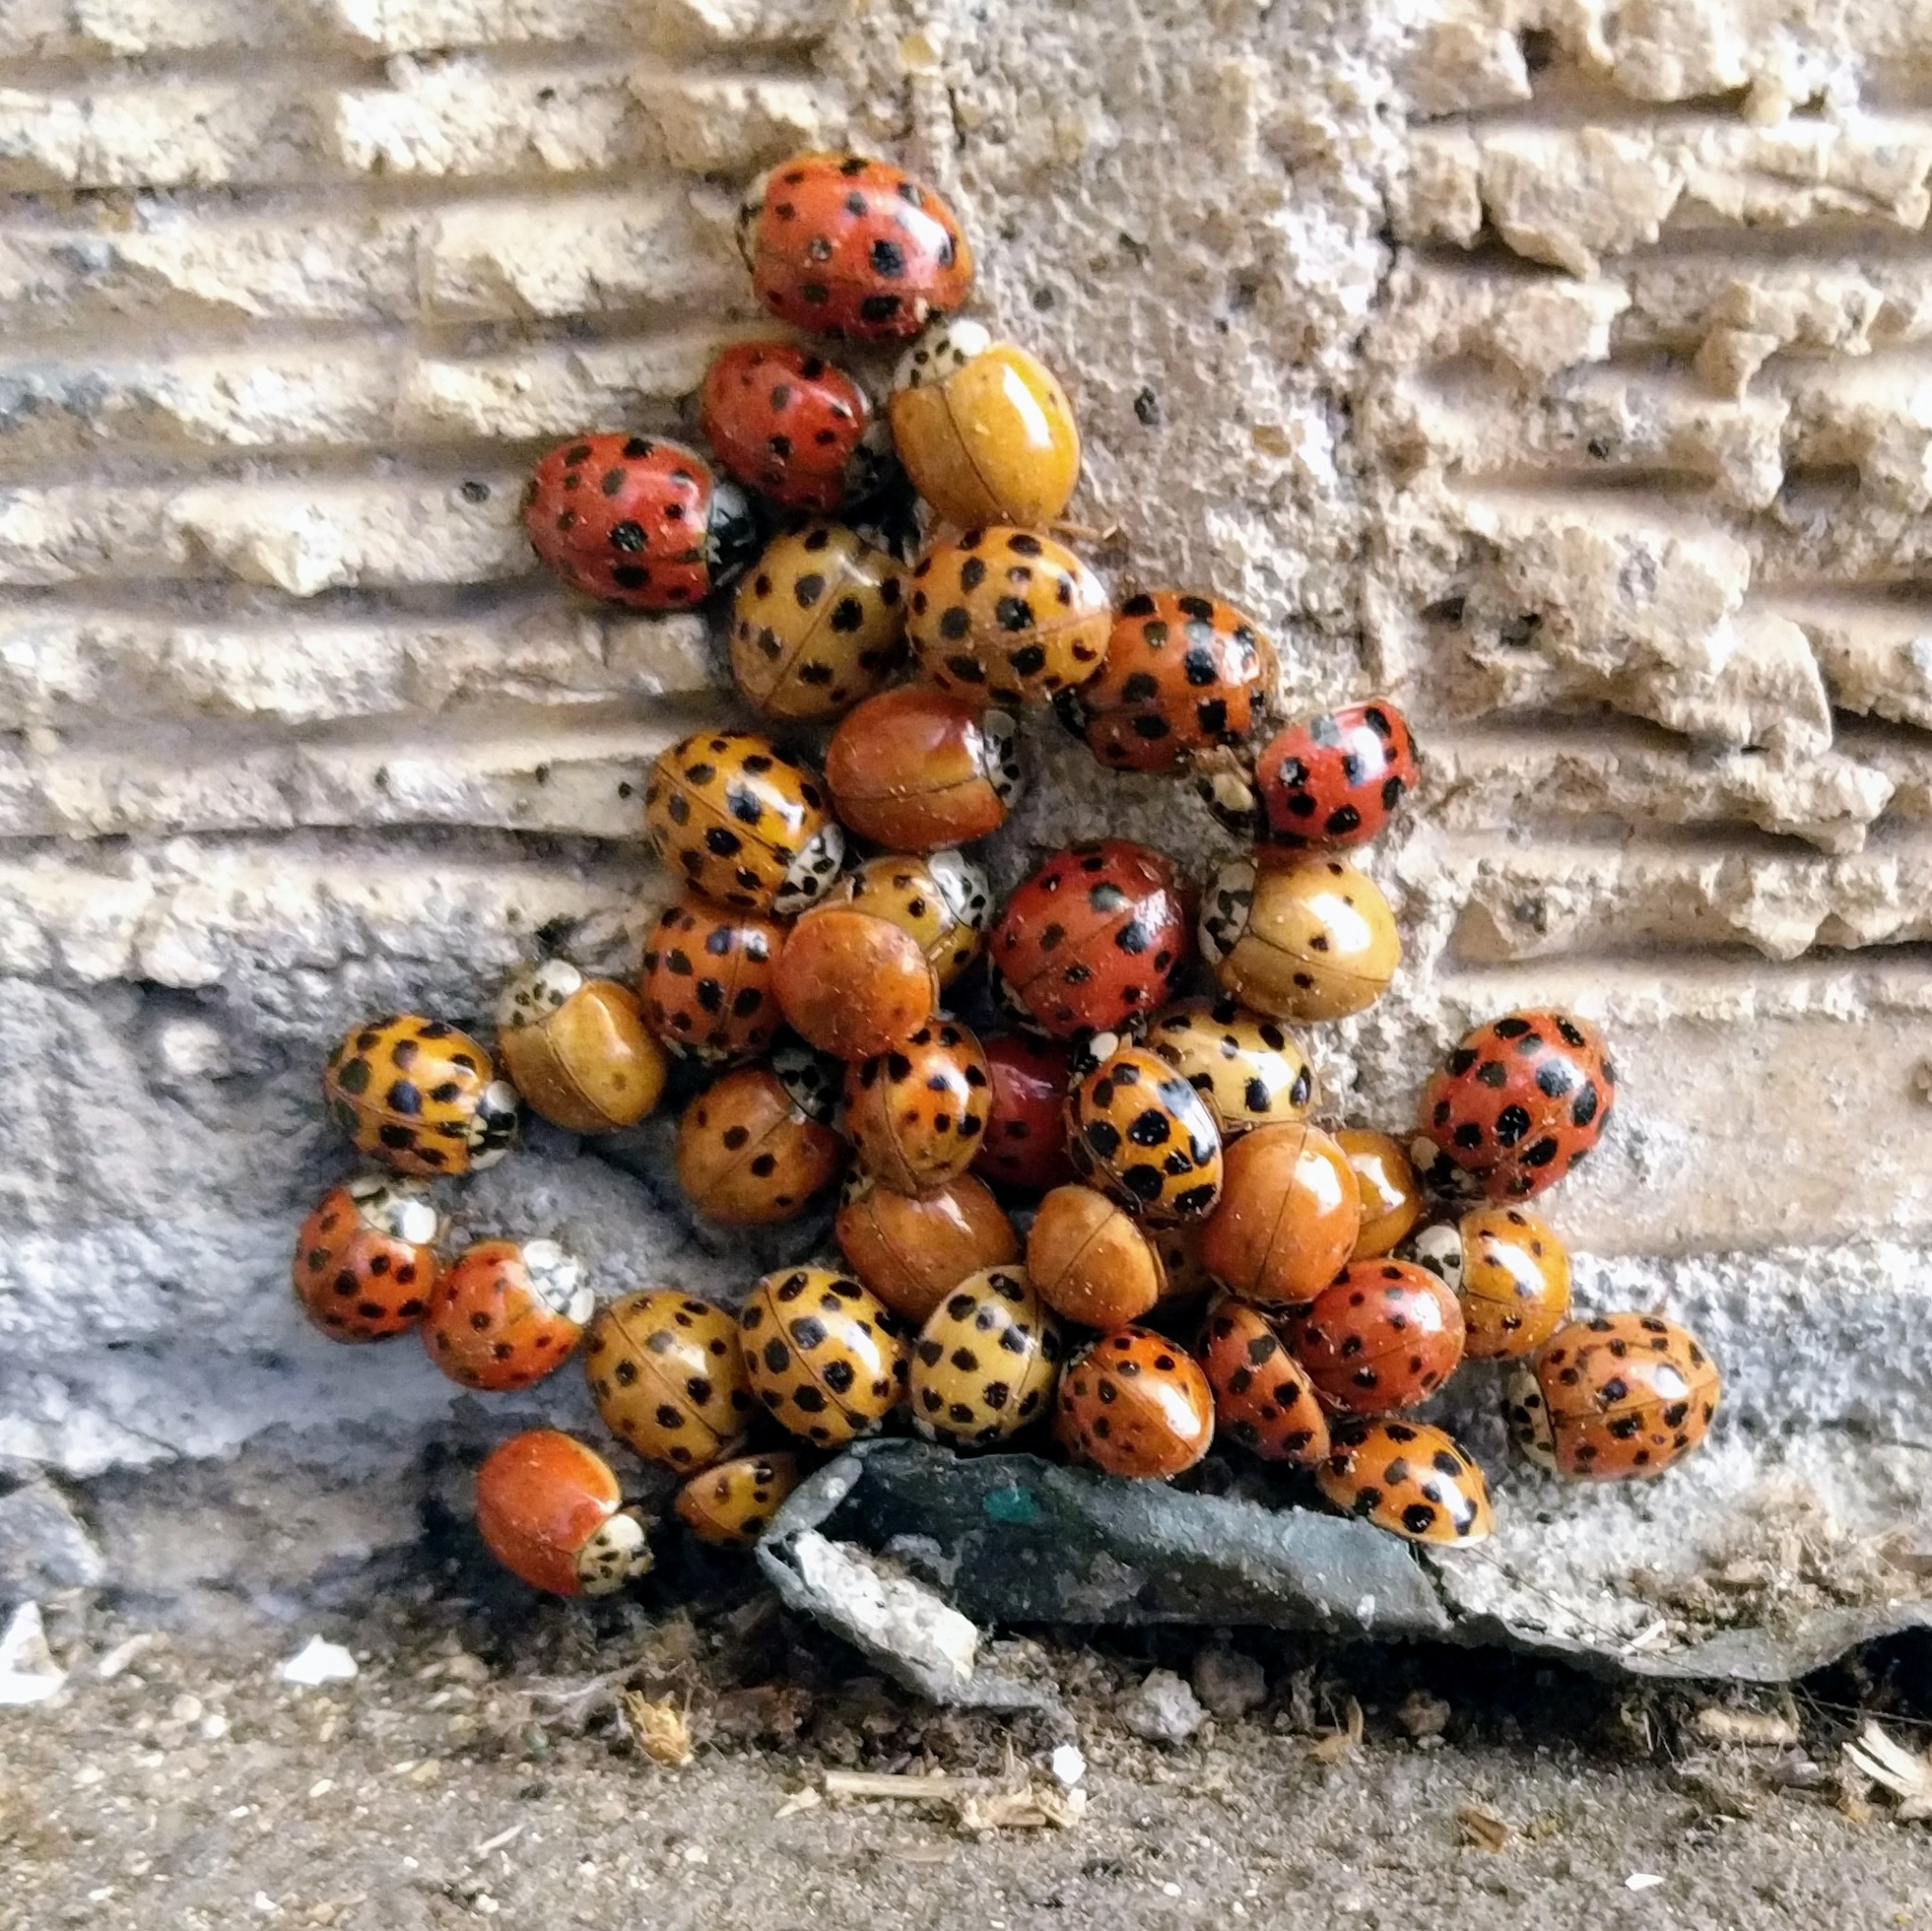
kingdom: Animalia
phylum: Arthropoda
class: Insecta
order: Coleoptera
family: Coccinellidae
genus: Harmonia
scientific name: Harmonia axyridis
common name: Harlequin ladybird
